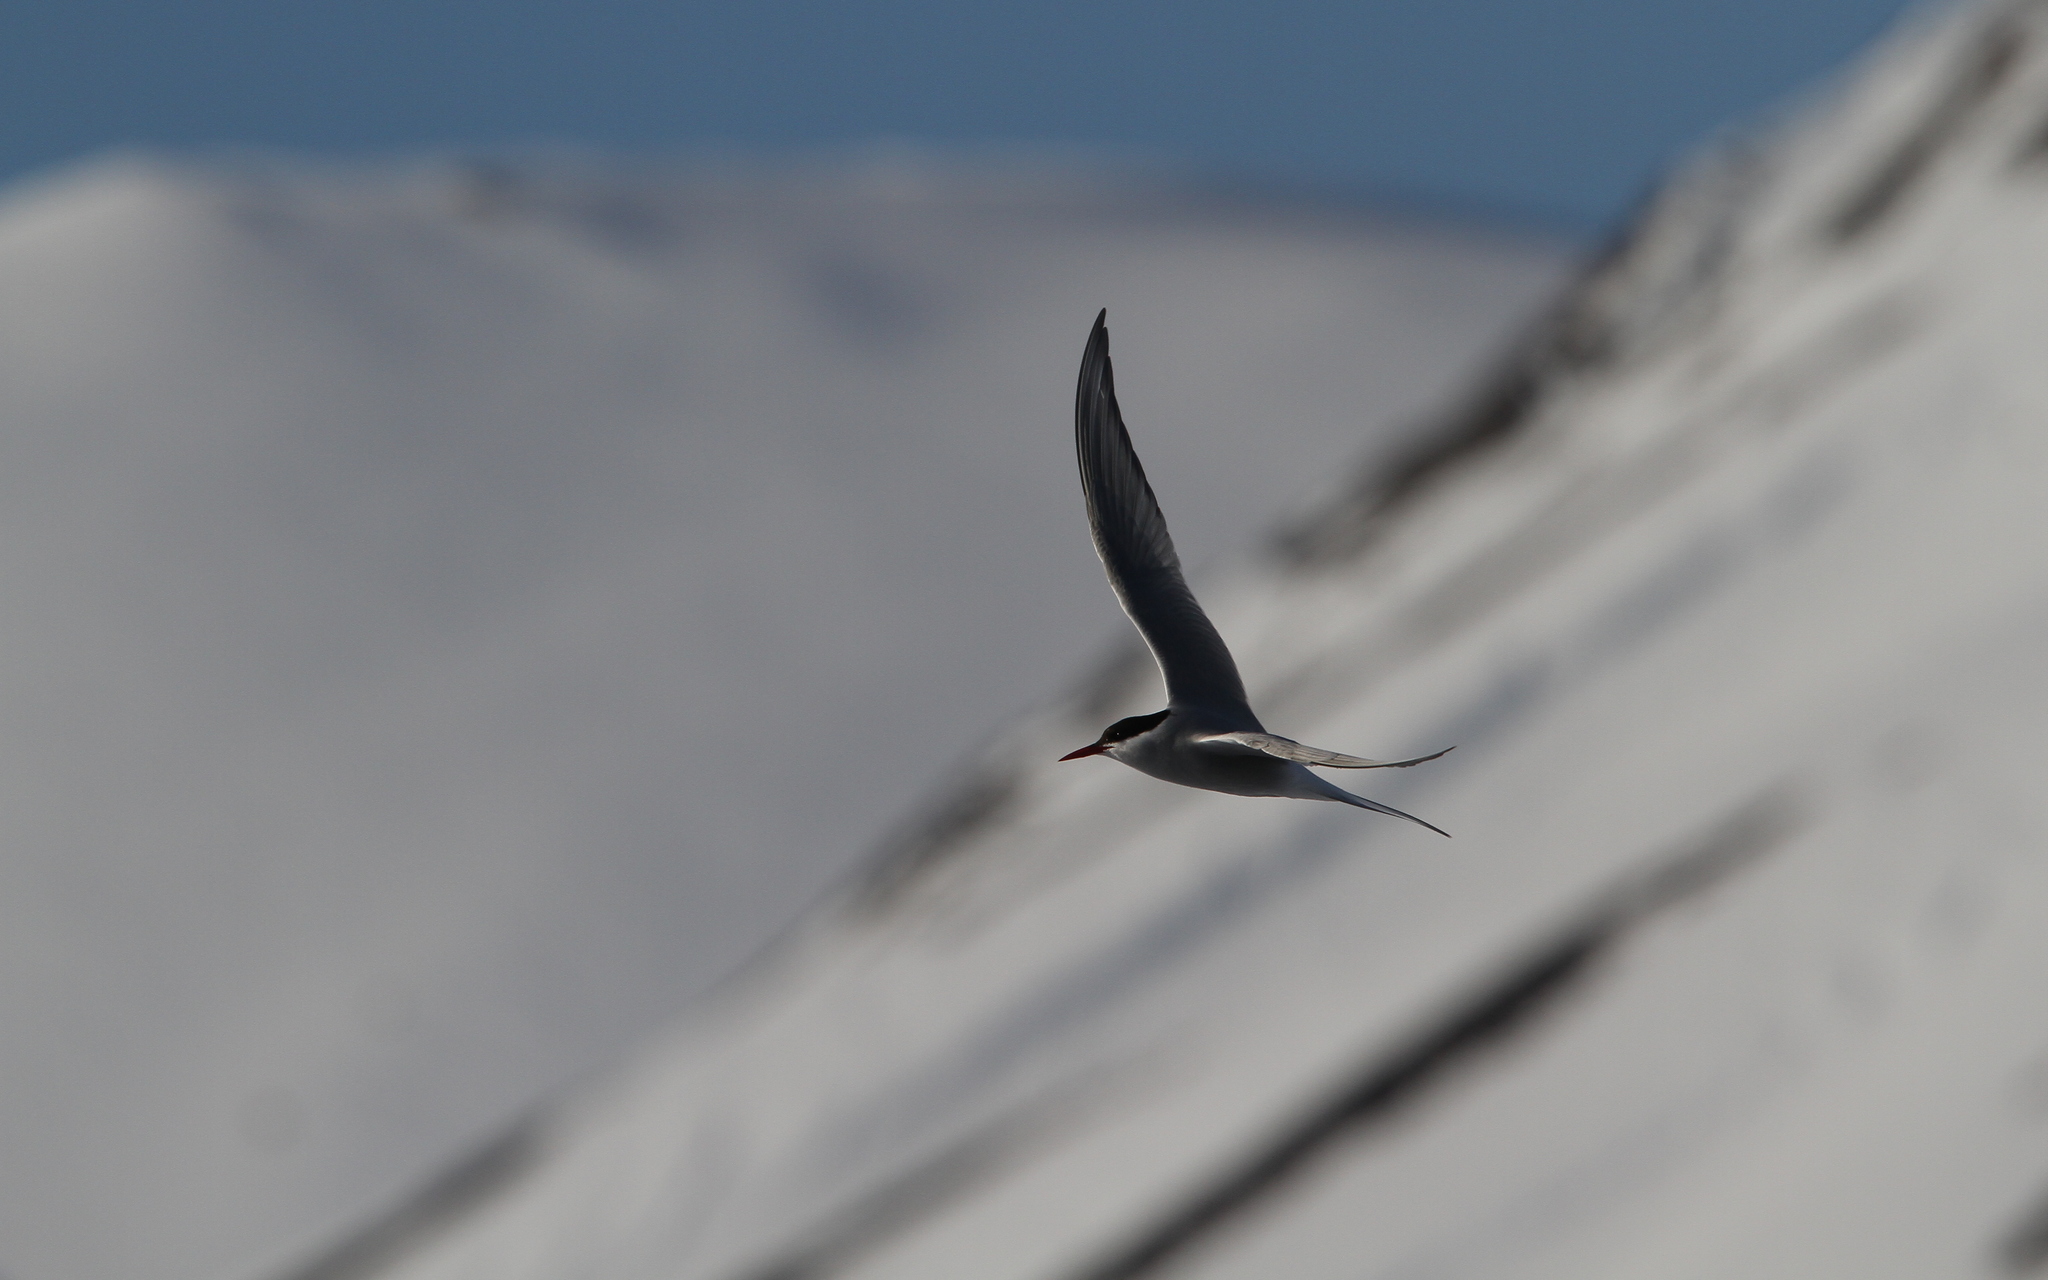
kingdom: Animalia
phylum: Chordata
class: Aves
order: Charadriiformes
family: Laridae
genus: Sterna
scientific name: Sterna paradisaea
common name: Arctic tern
